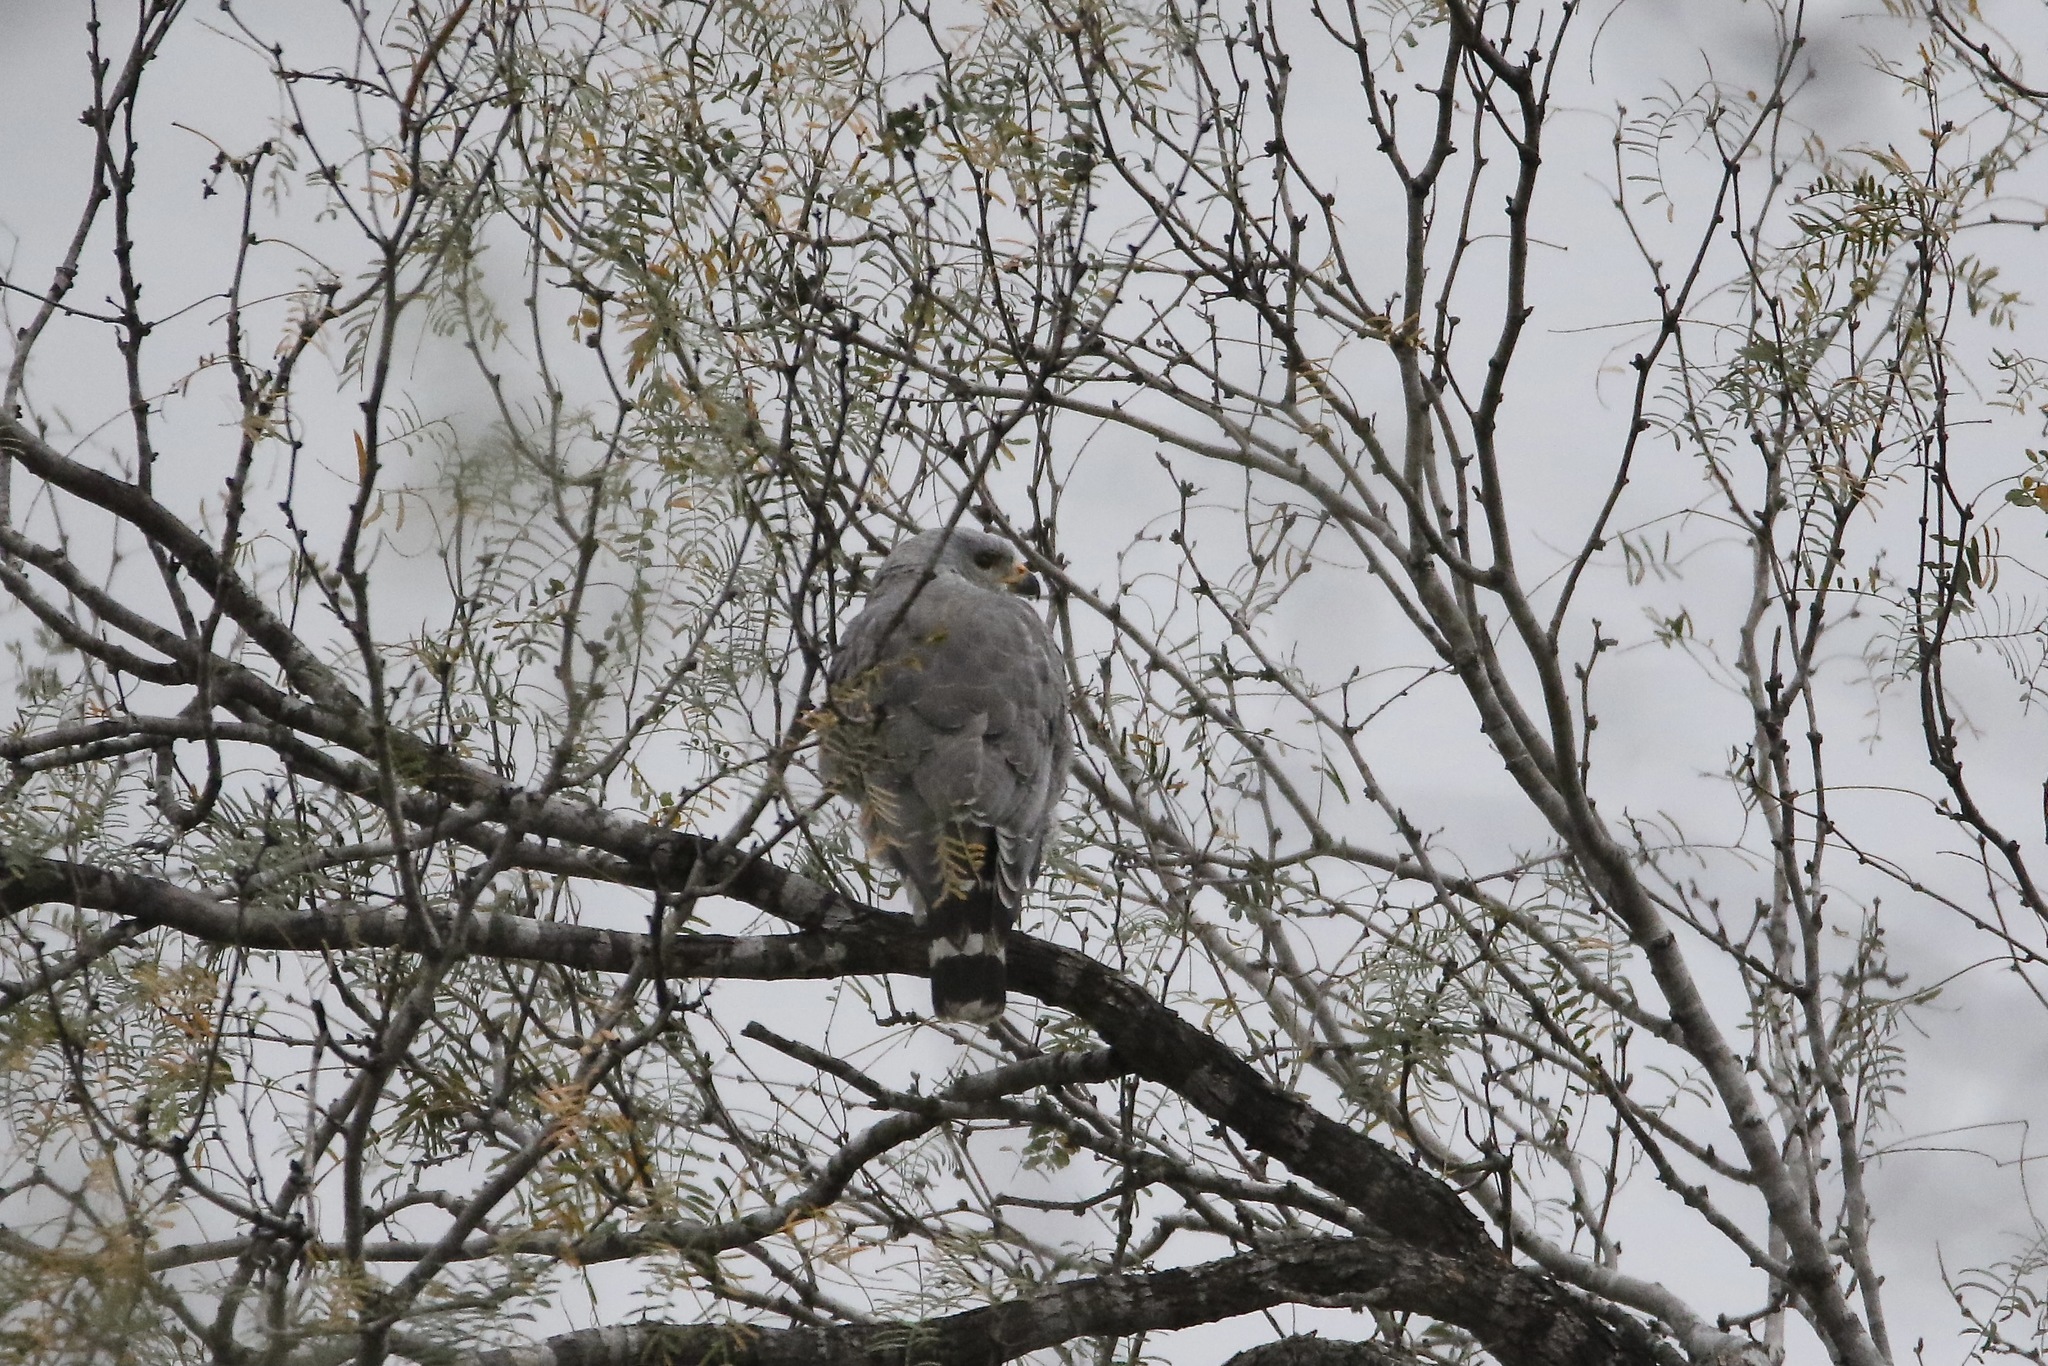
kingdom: Animalia
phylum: Chordata
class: Aves
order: Accipitriformes
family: Accipitridae
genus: Buteo
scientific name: Buteo nitidus
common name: Grey-lined hawk
